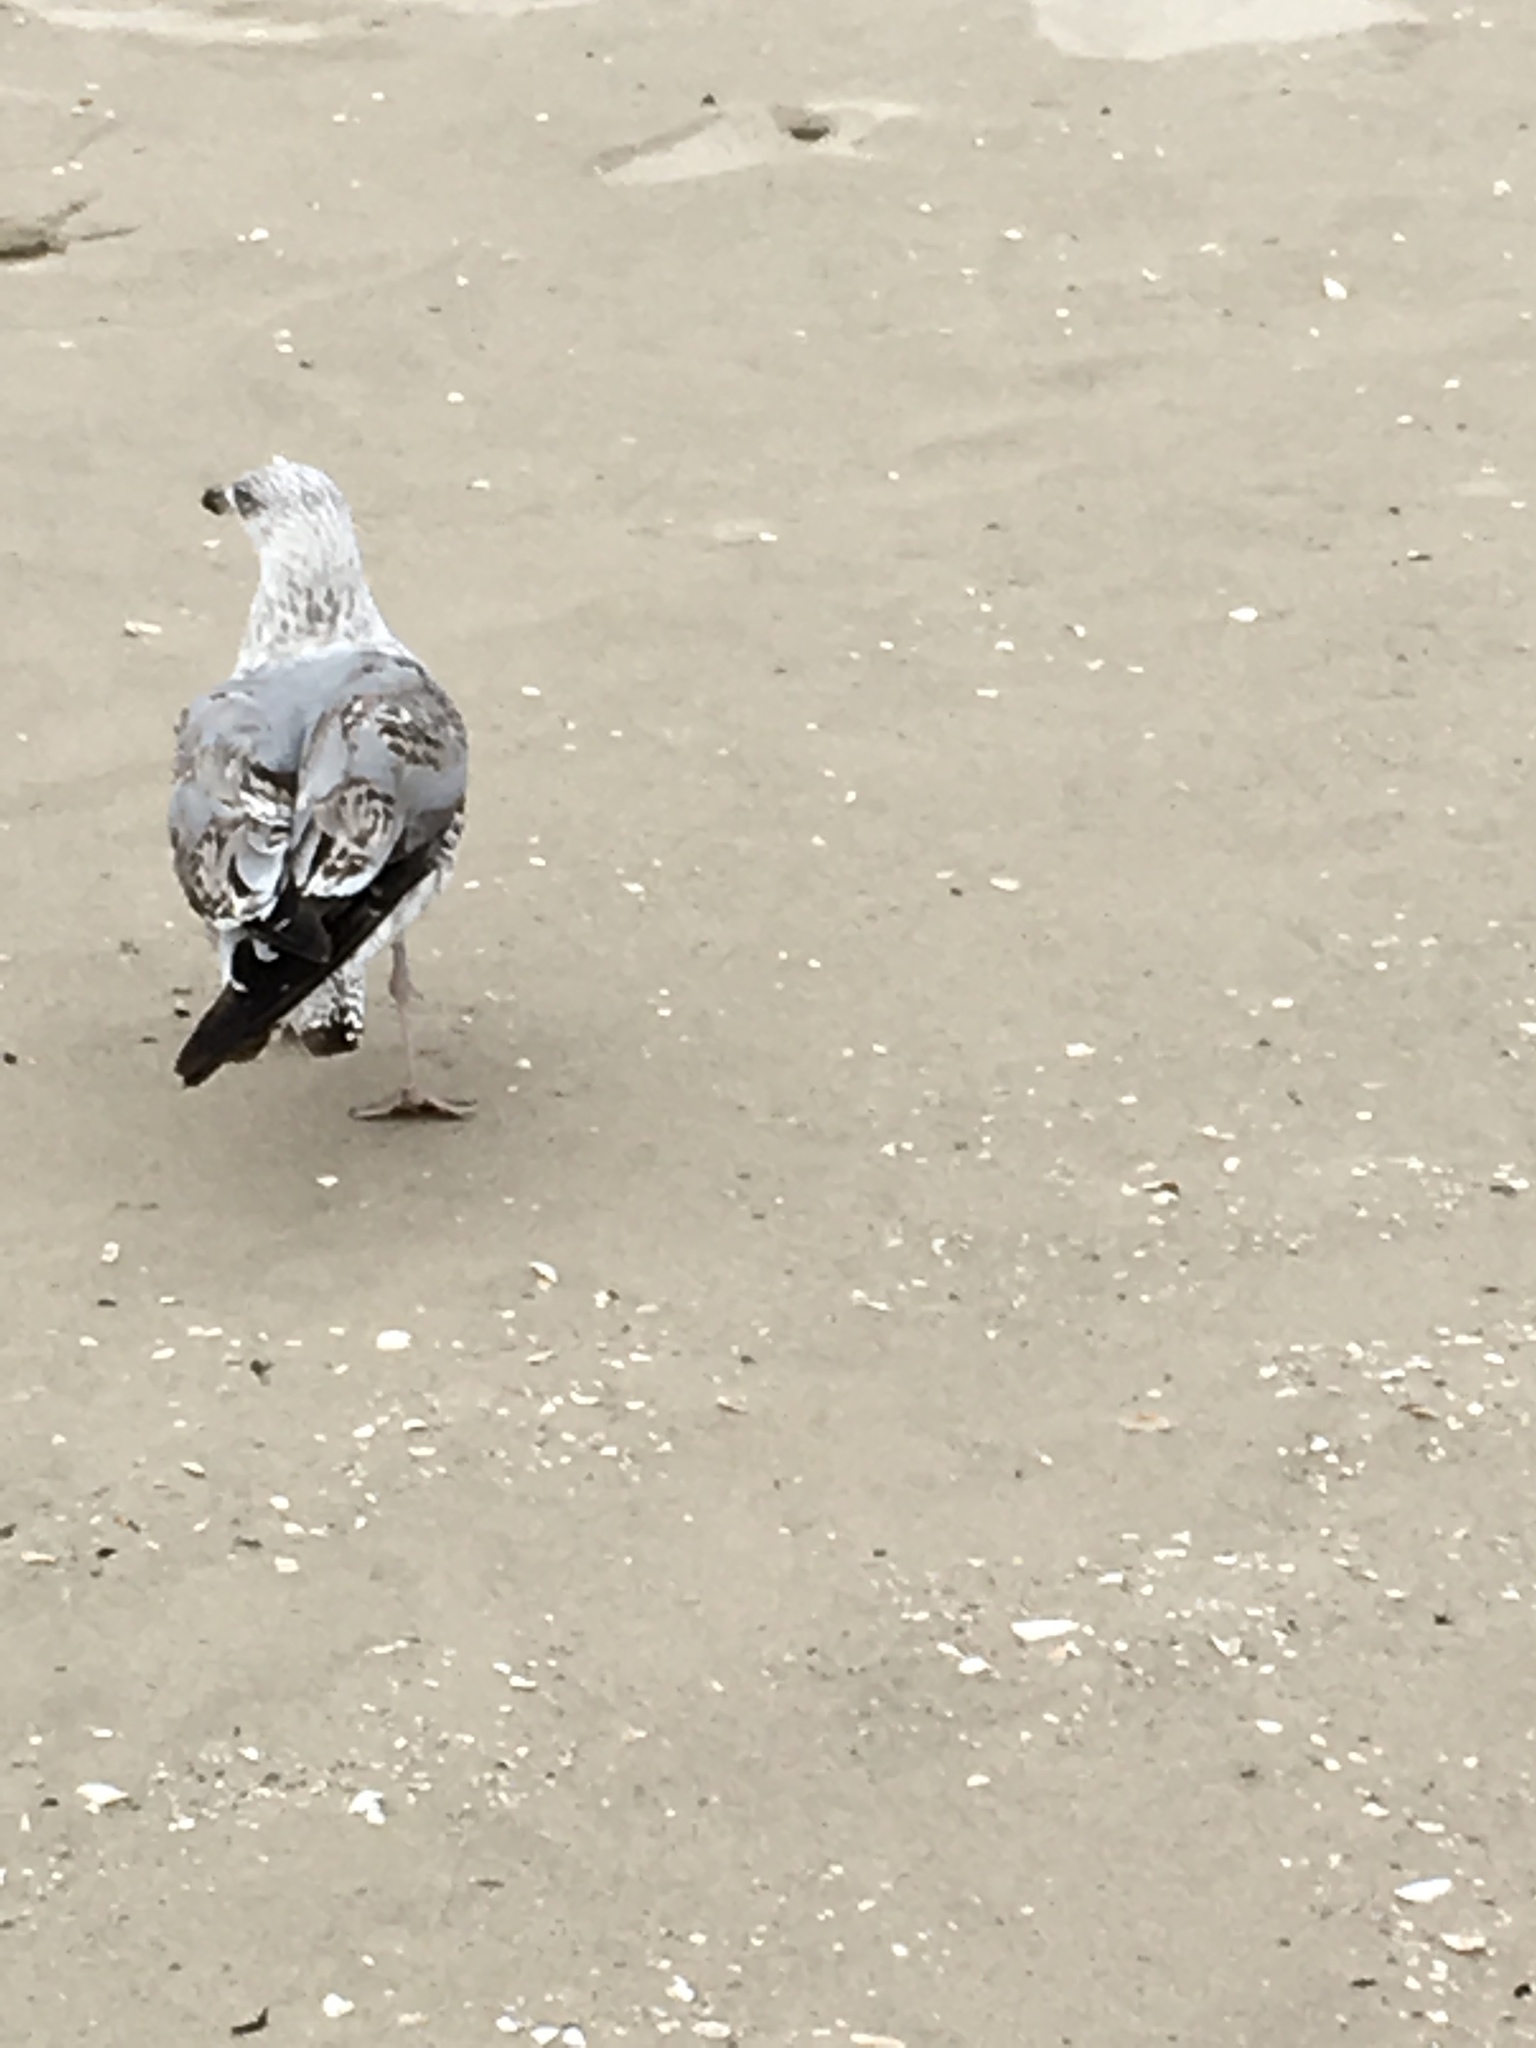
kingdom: Animalia
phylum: Chordata
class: Aves
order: Charadriiformes
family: Laridae
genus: Larus
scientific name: Larus argentatus
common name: Herring gull
